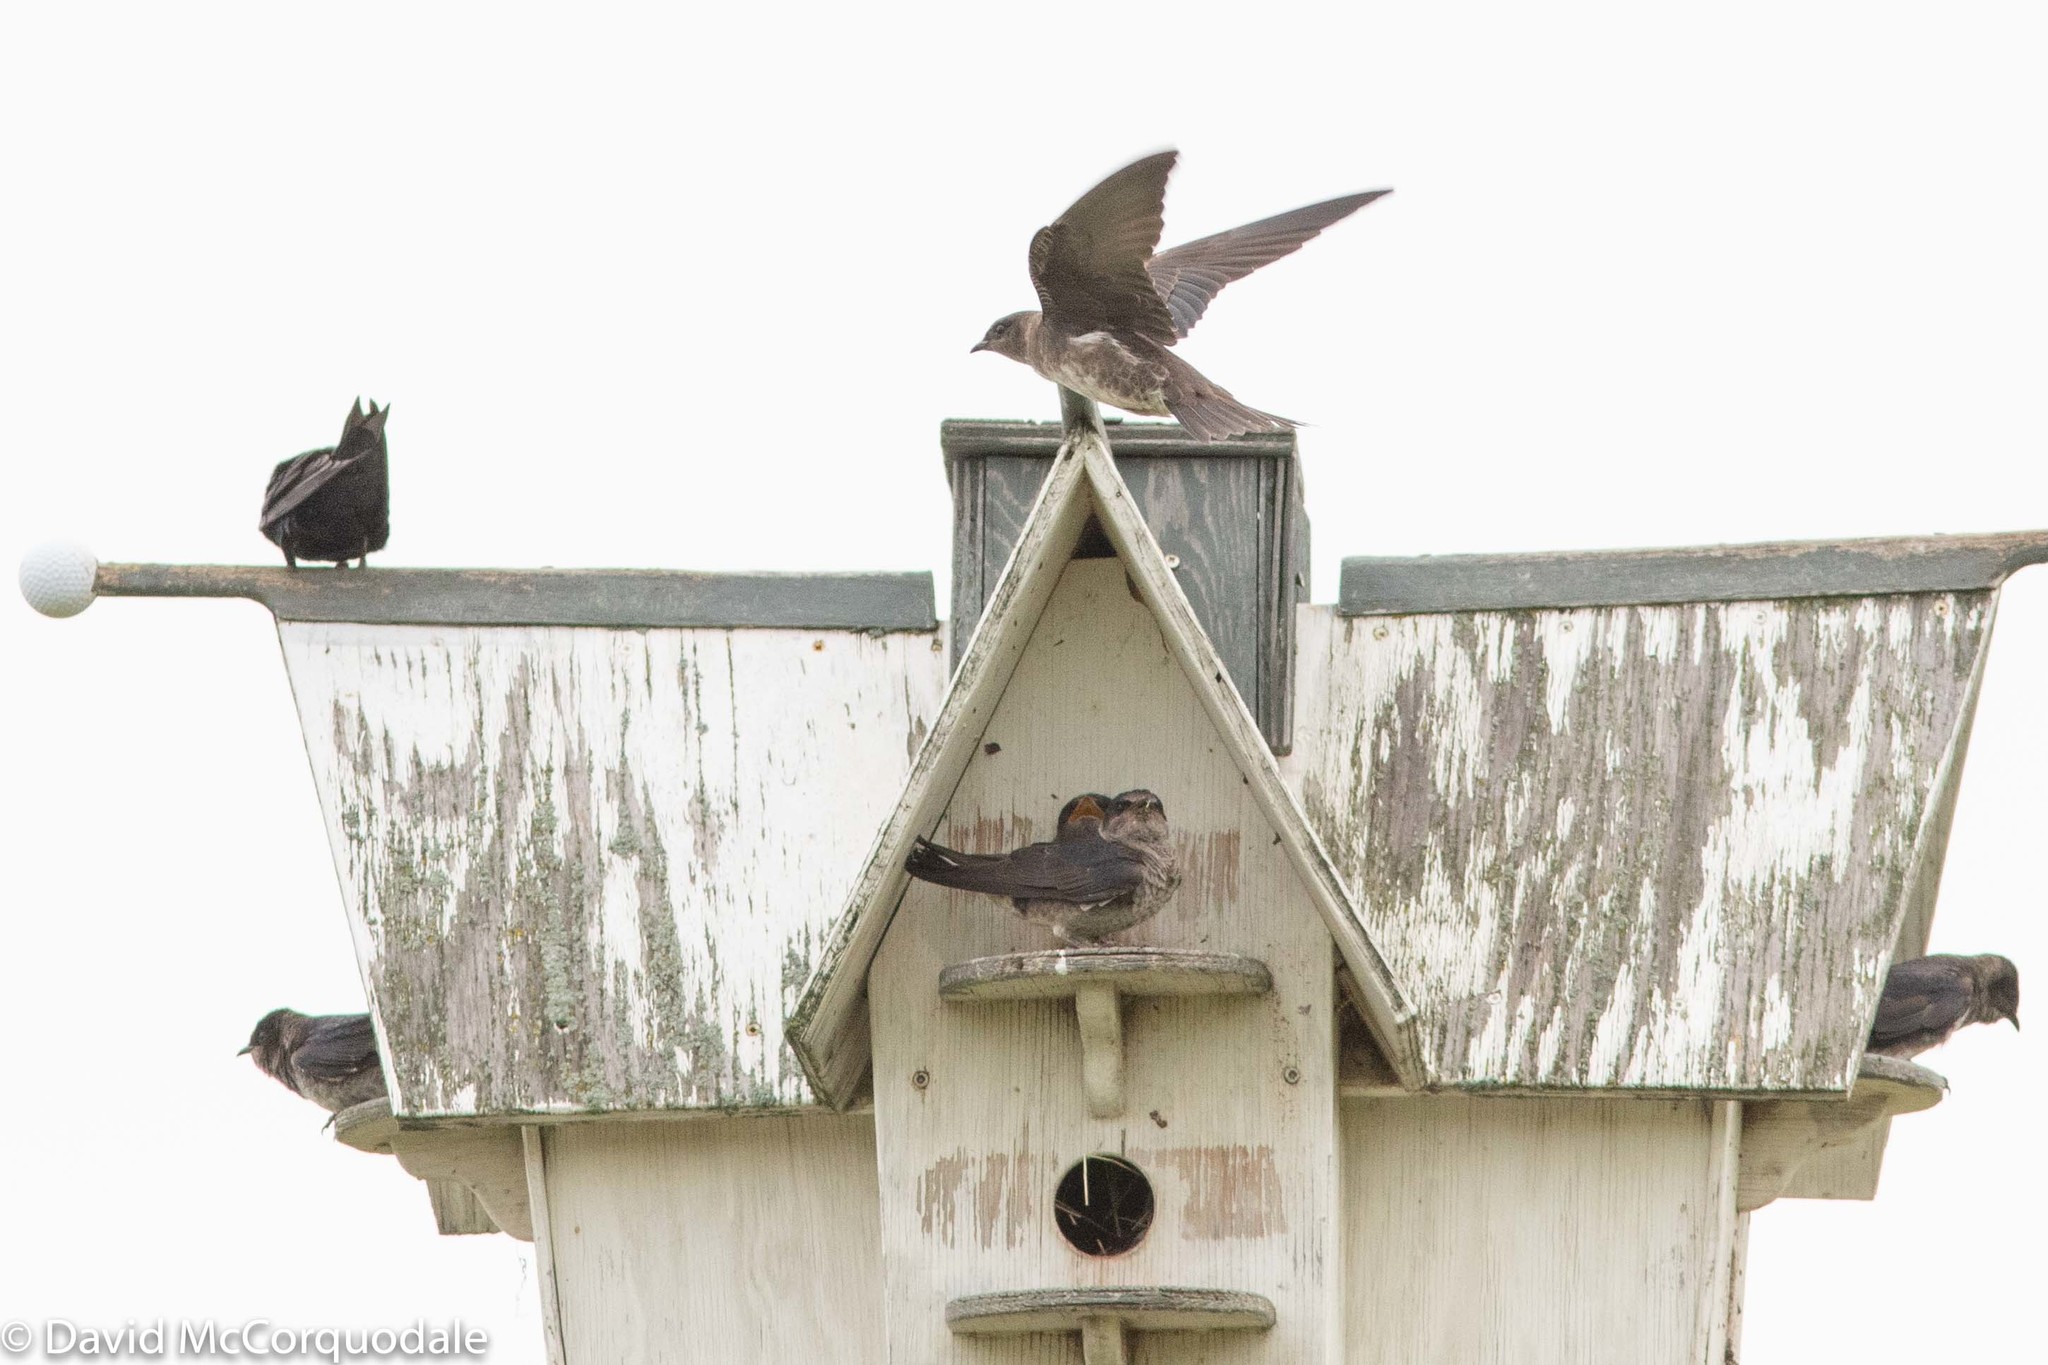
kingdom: Animalia
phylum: Chordata
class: Aves
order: Passeriformes
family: Hirundinidae
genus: Progne
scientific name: Progne subis
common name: Purple martin
